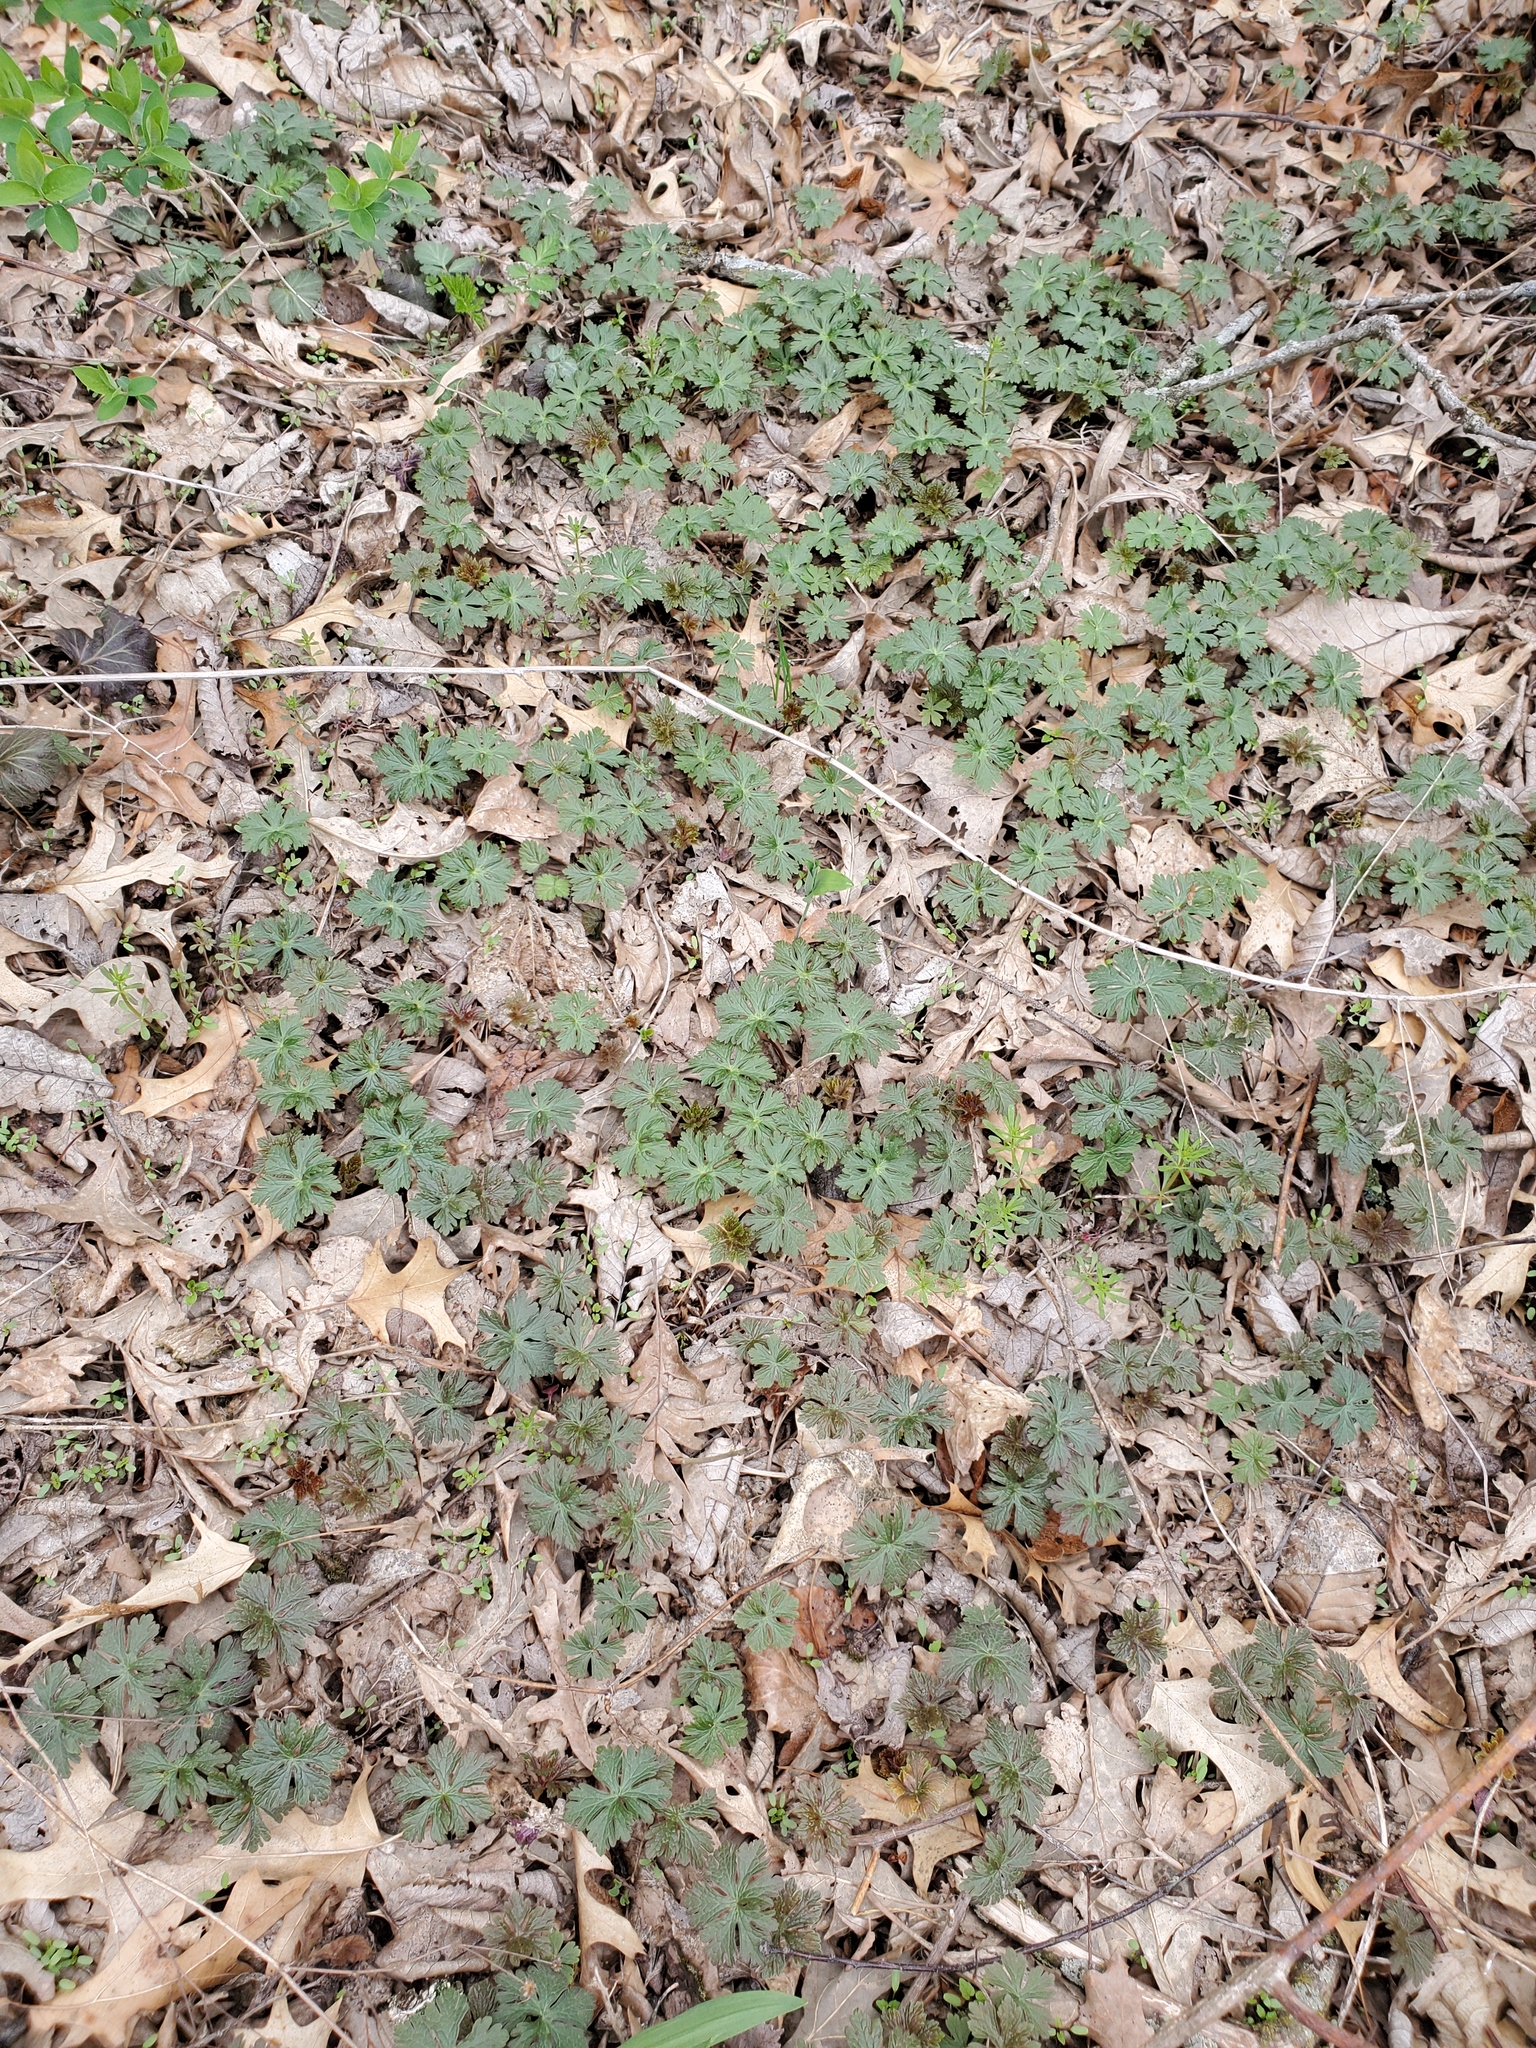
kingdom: Plantae
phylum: Tracheophyta
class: Magnoliopsida
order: Geraniales
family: Geraniaceae
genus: Geranium
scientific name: Geranium maculatum
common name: Spotted geranium
